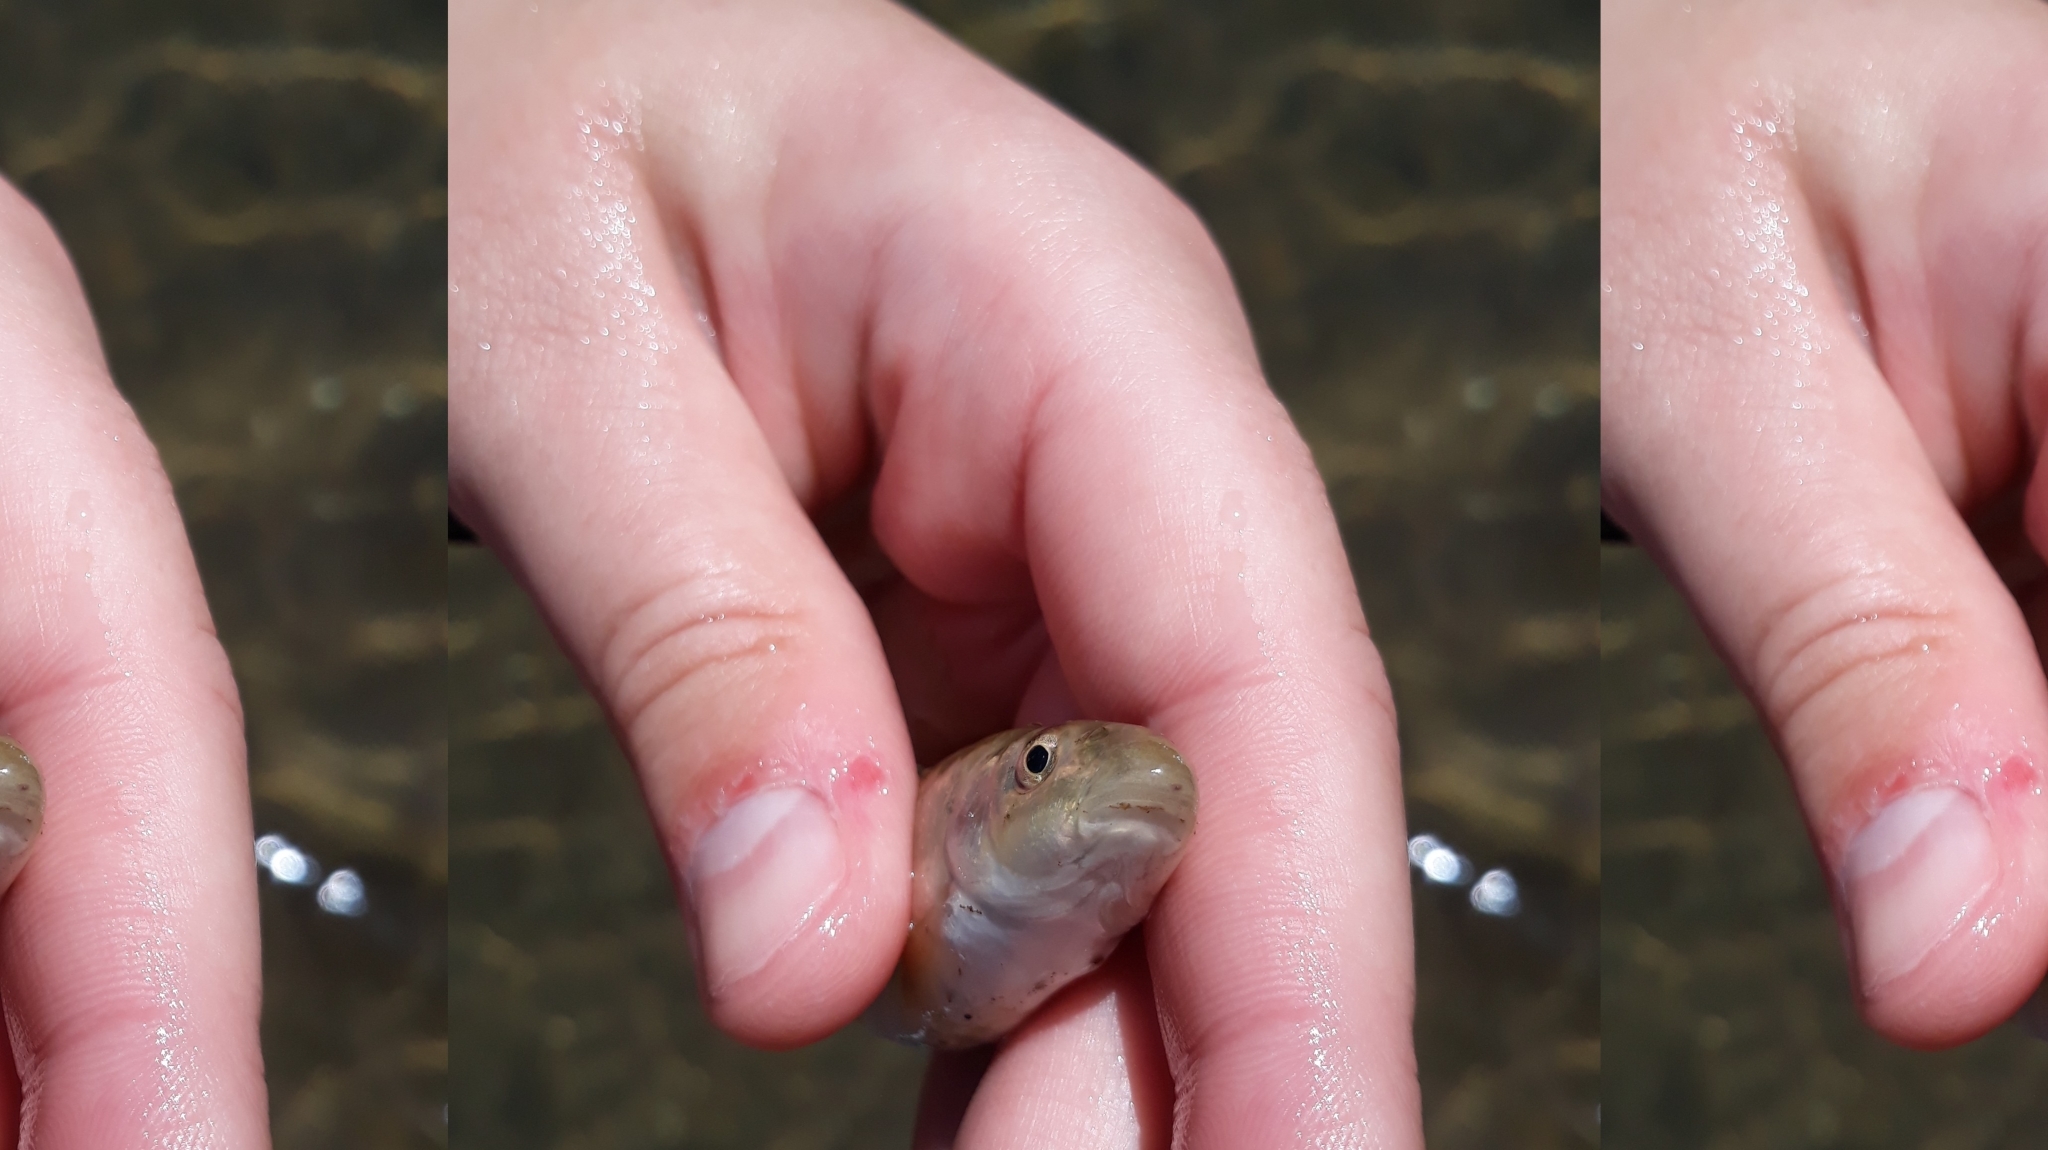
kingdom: Animalia
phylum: Chordata
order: Cypriniformes
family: Cyprinidae
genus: Campostoma
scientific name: Campostoma anomalum
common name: Central stoneroller
